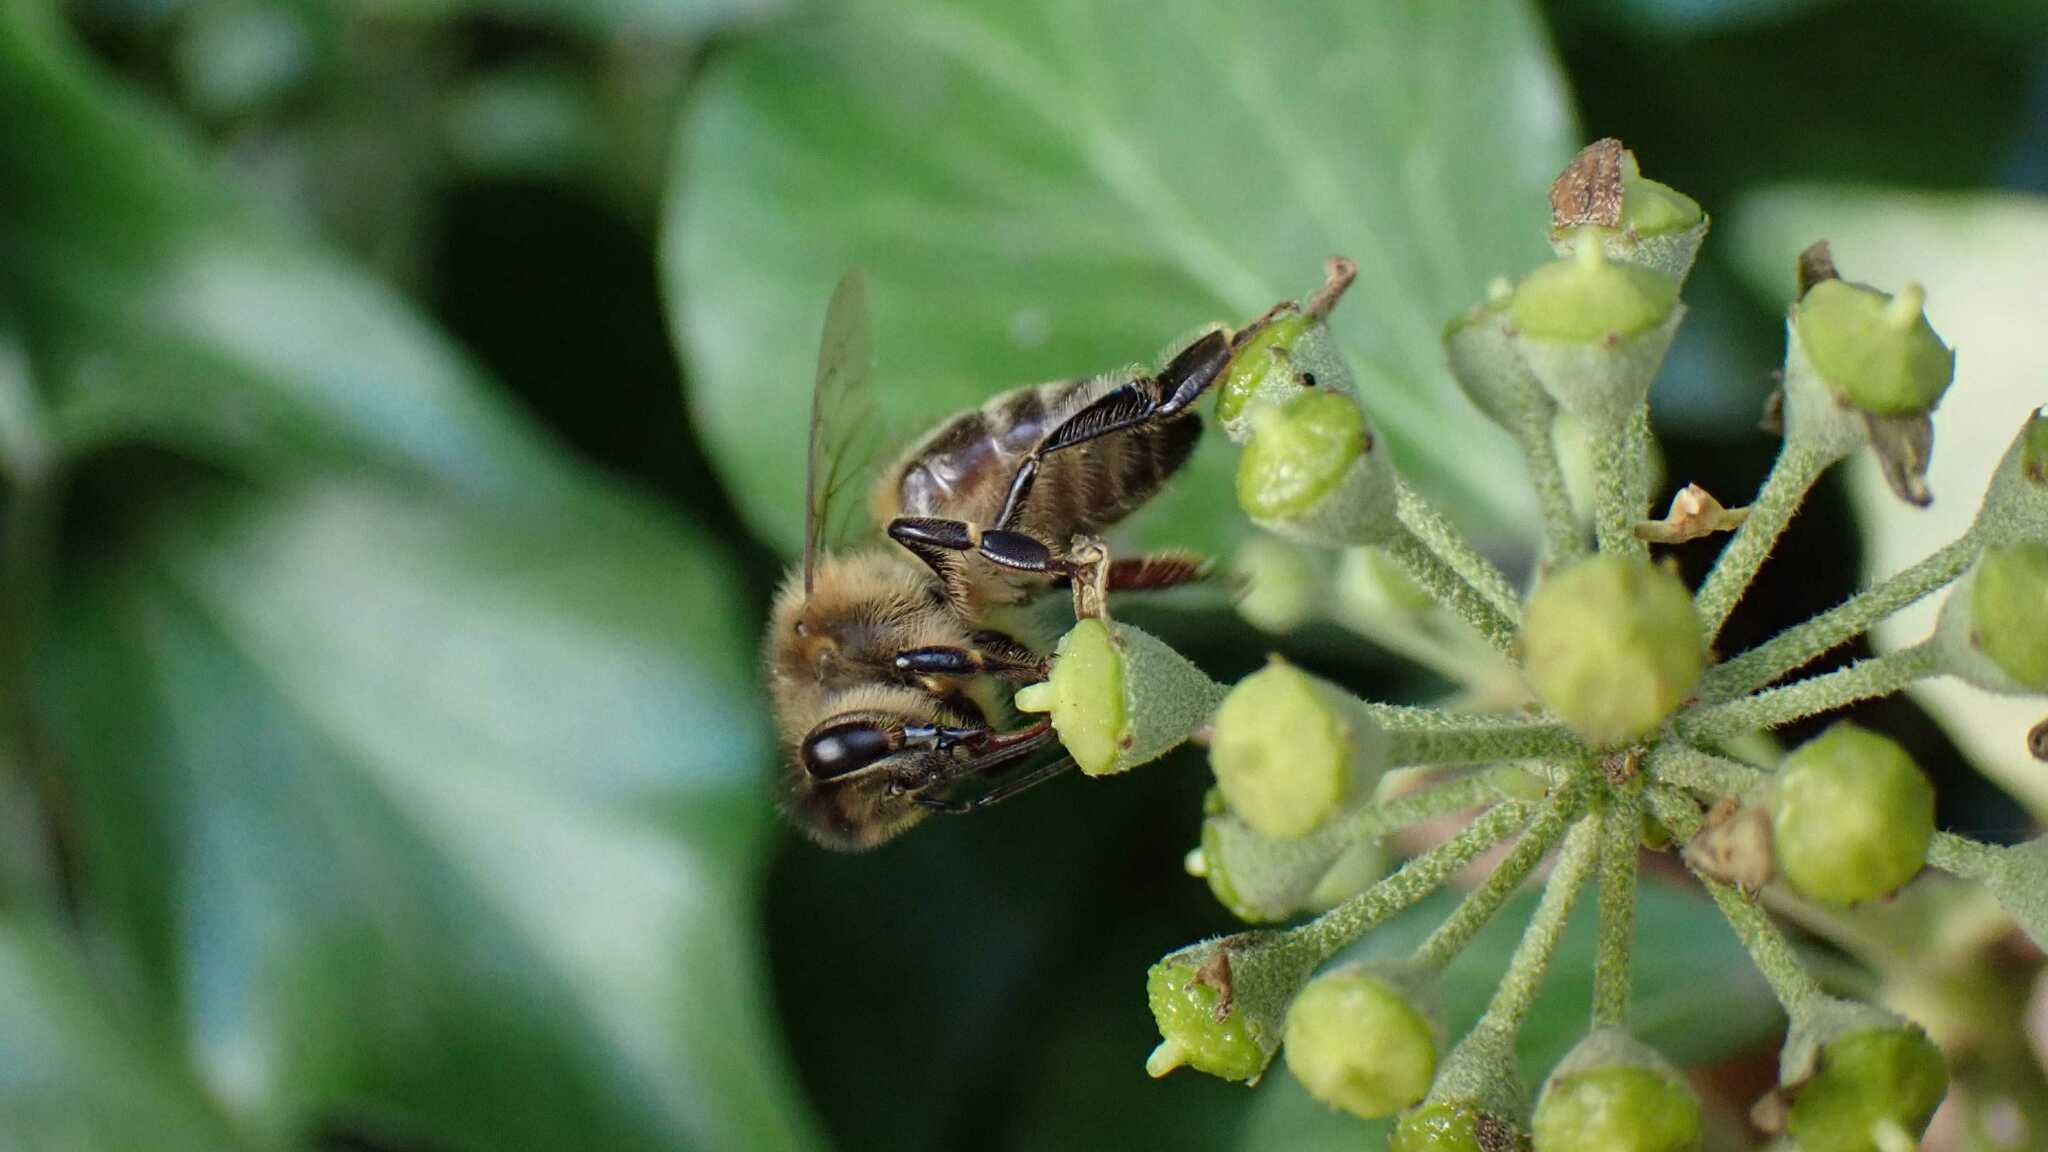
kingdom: Animalia
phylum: Arthropoda
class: Insecta
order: Hymenoptera
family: Apidae
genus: Apis
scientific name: Apis mellifera
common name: Honey bee
